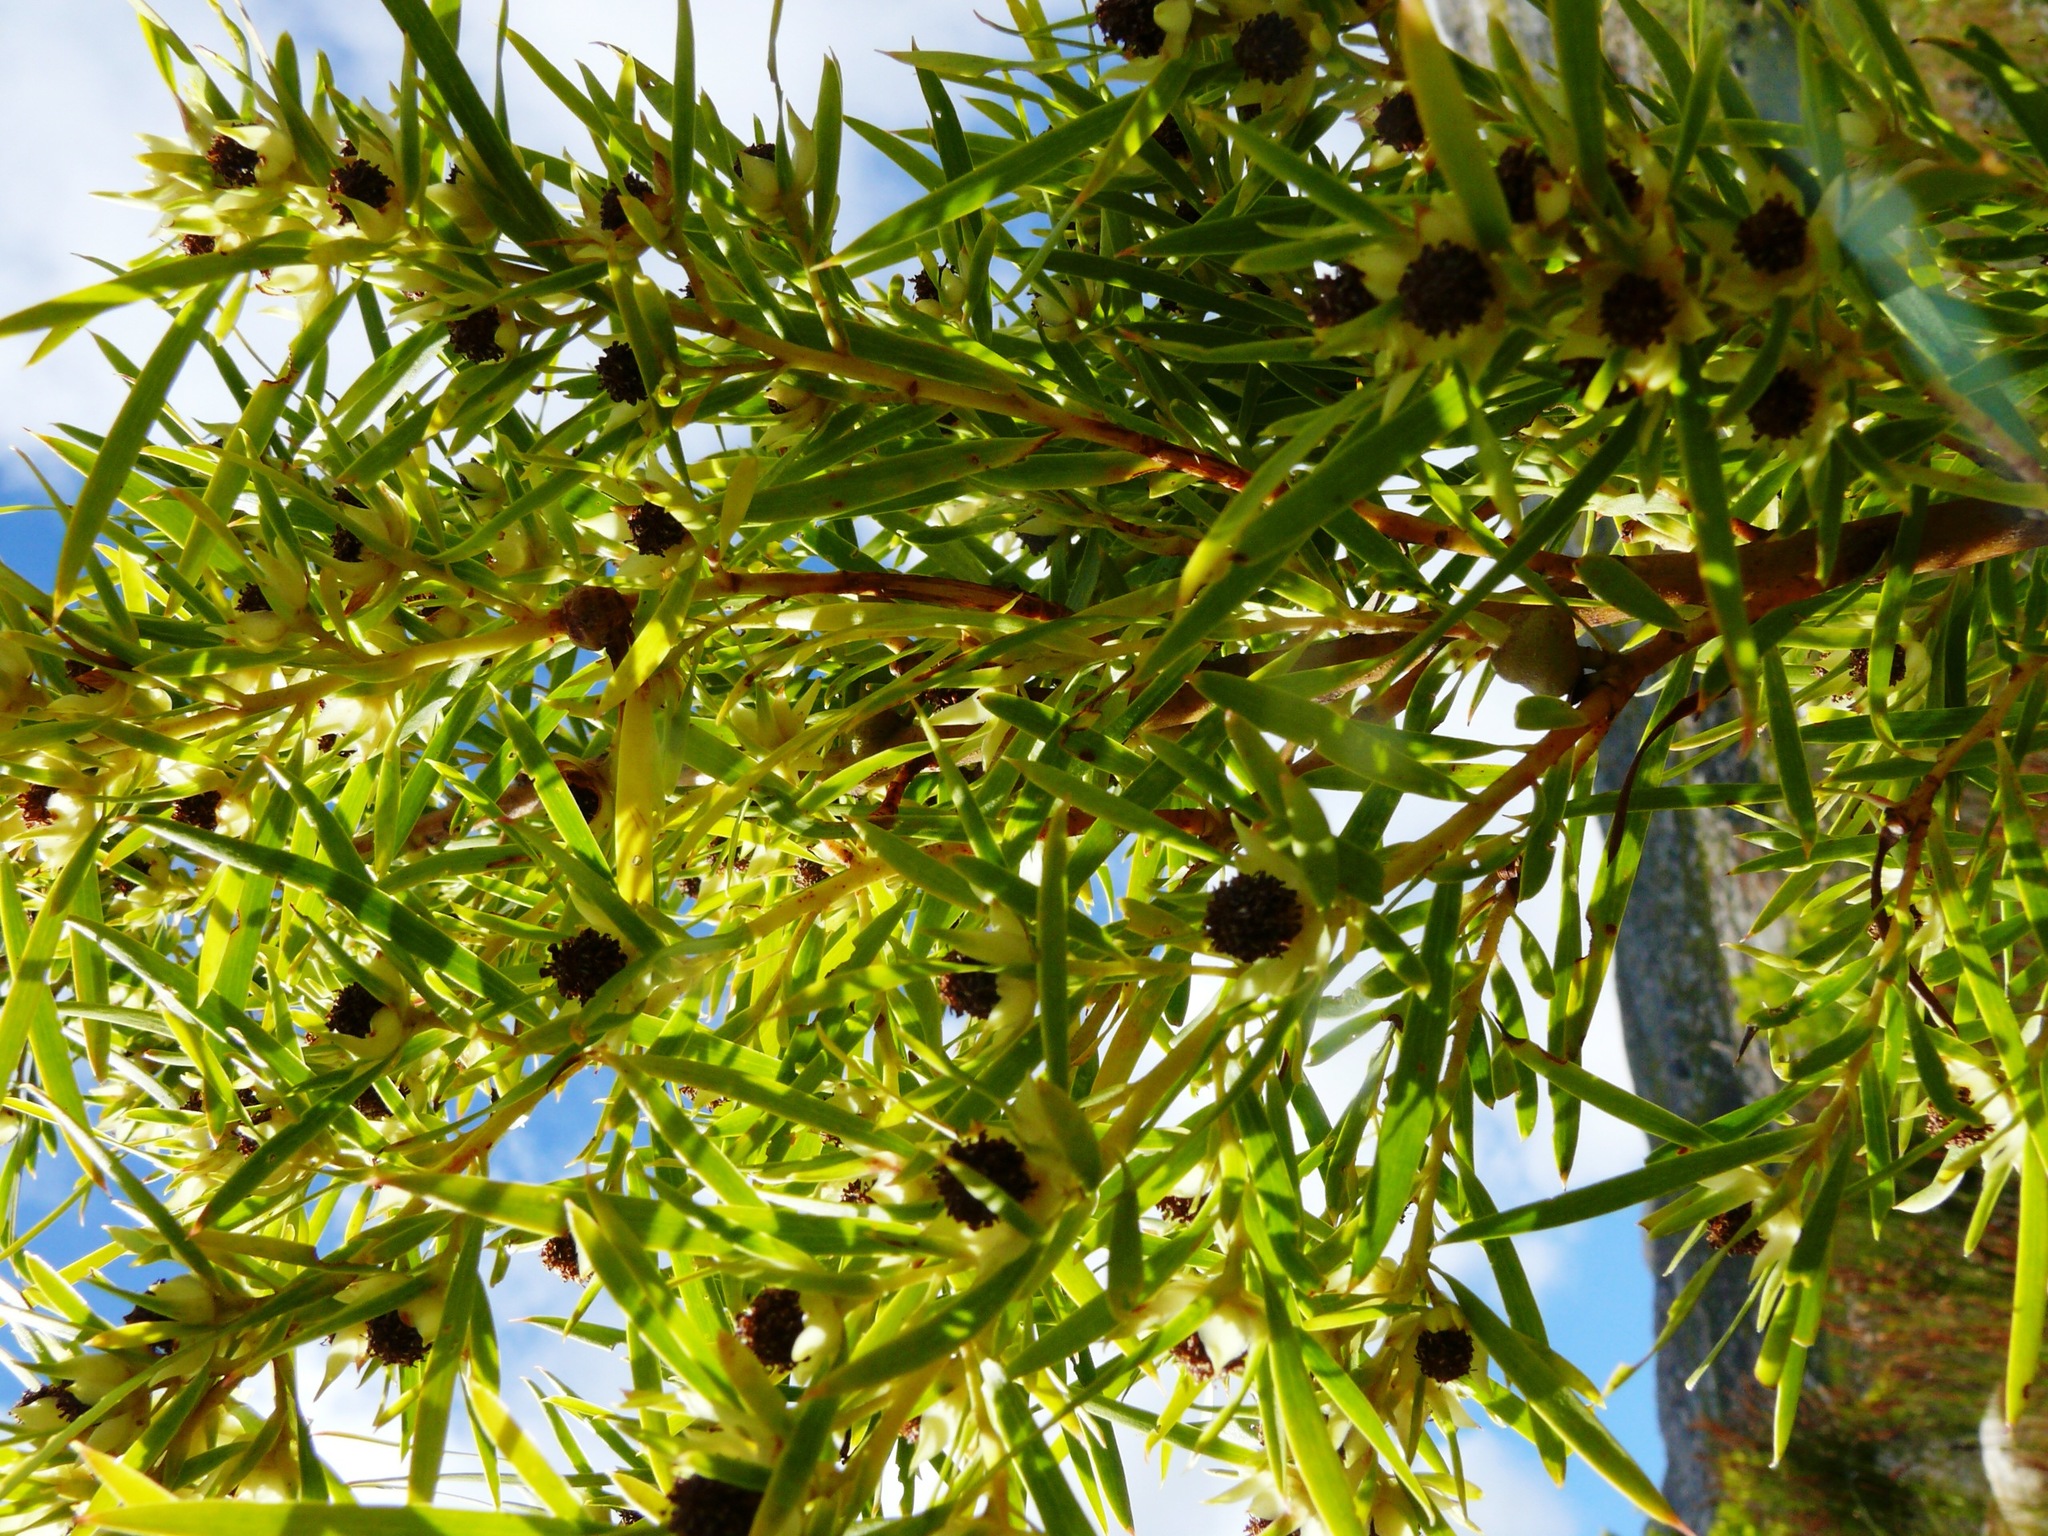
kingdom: Plantae
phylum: Tracheophyta
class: Magnoliopsida
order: Proteales
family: Proteaceae
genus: Leucadendron
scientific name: Leucadendron salicifolium
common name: Common stream conebush
